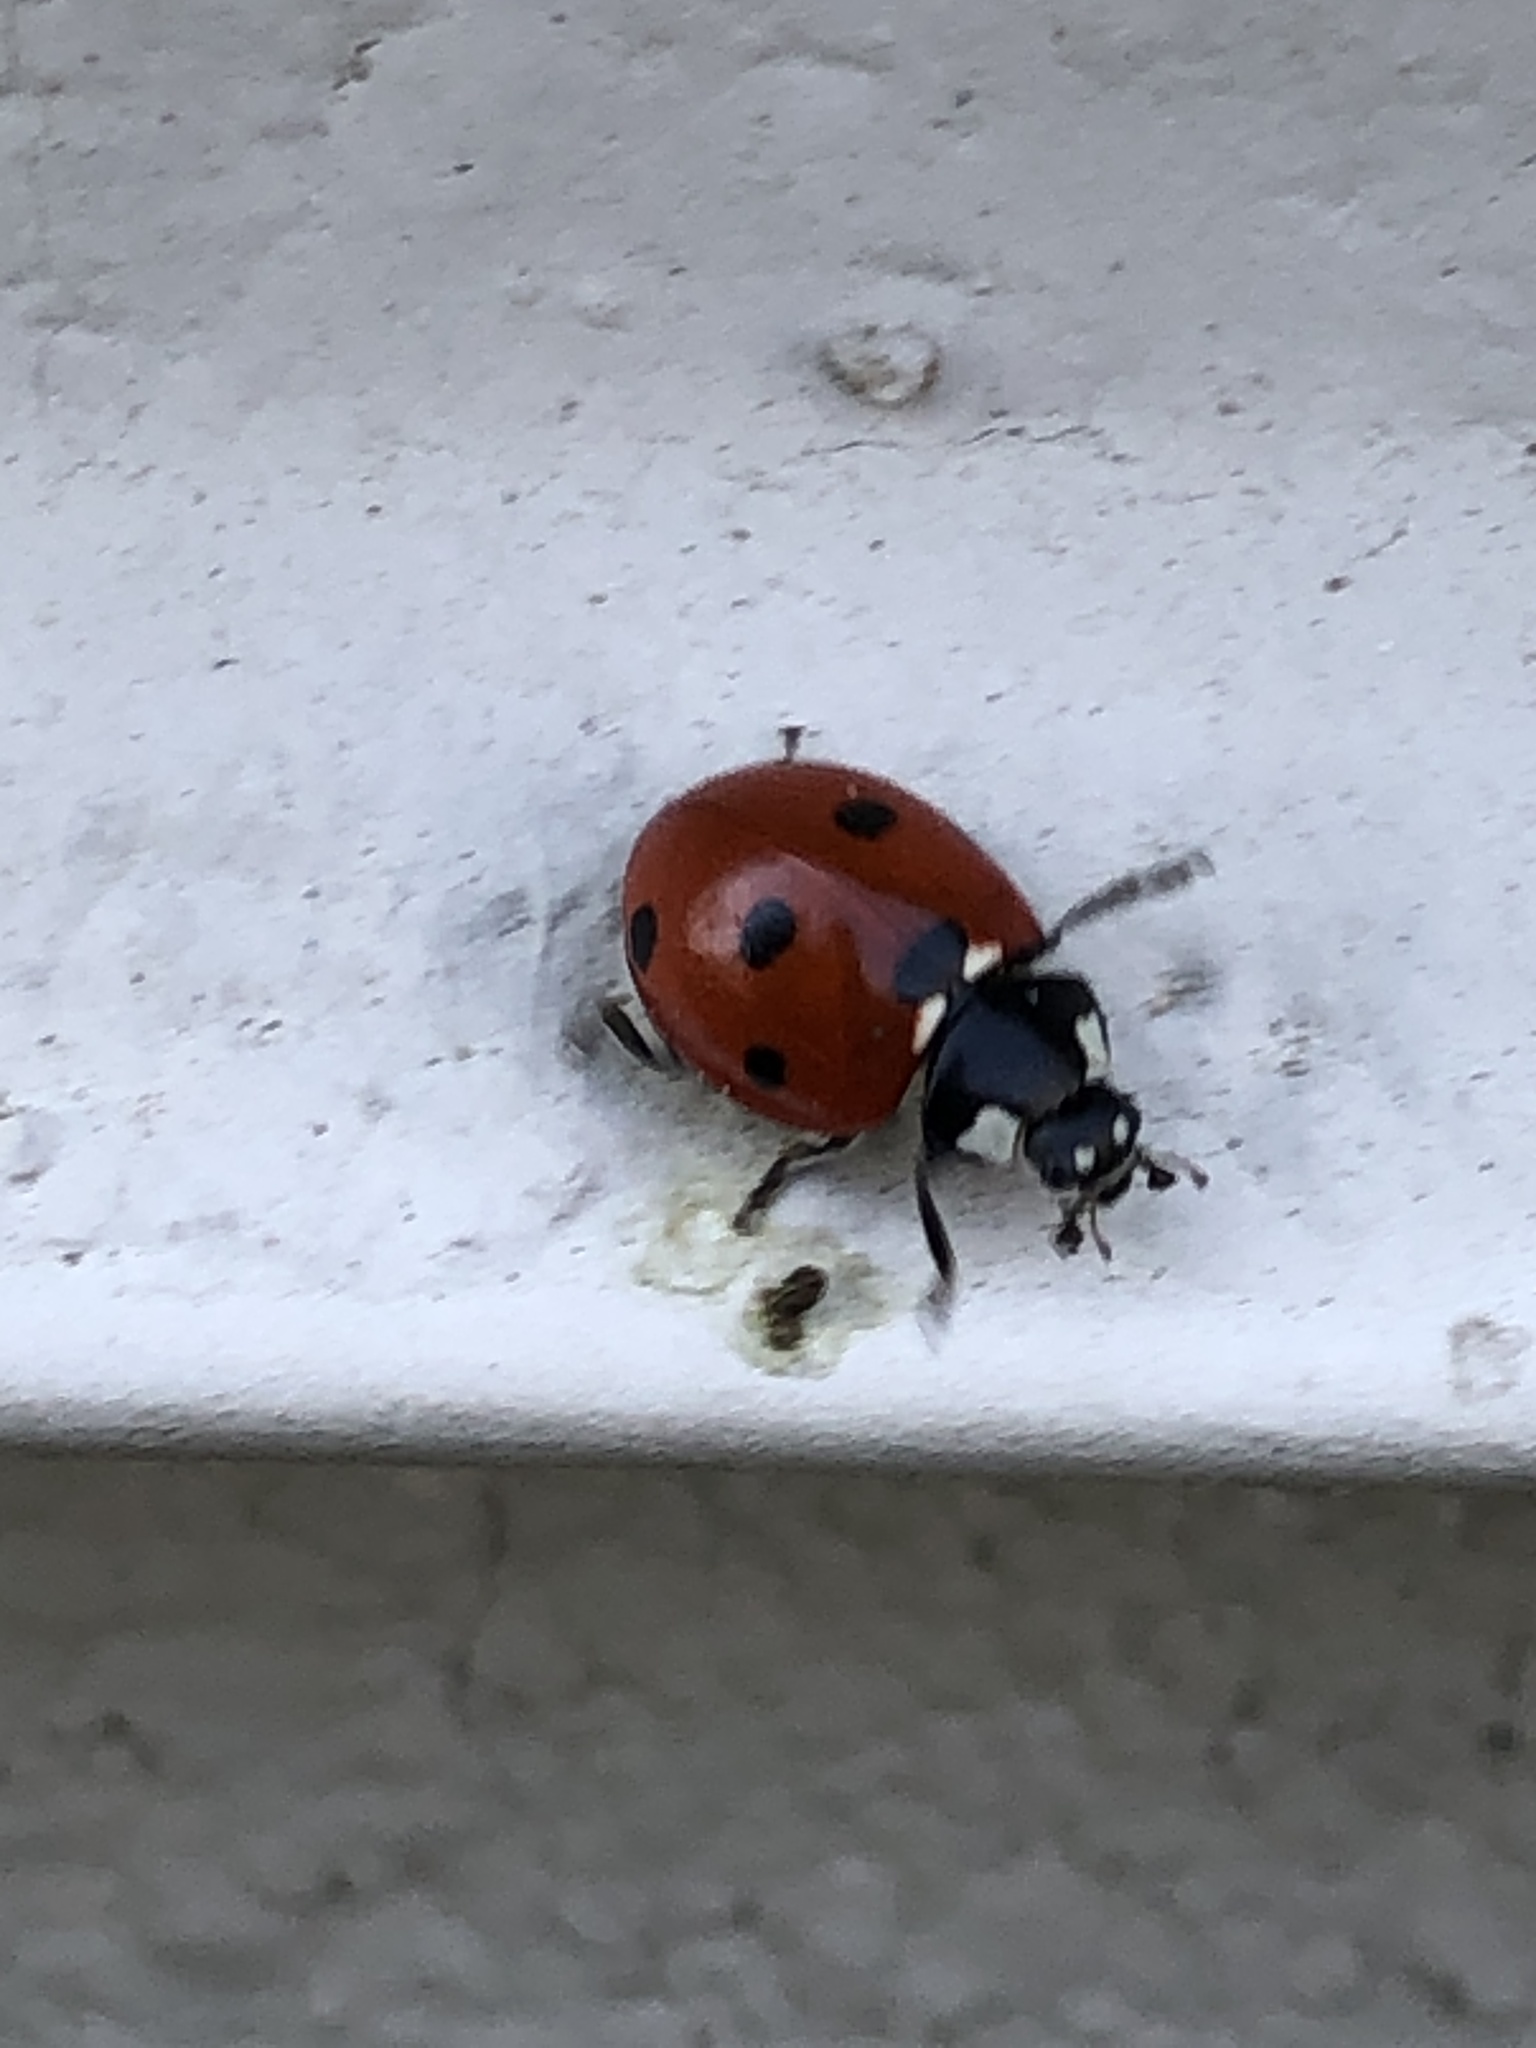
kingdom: Animalia
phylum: Arthropoda
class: Insecta
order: Coleoptera
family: Coccinellidae
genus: Coccinella
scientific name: Coccinella septempunctata
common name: Sevenspotted lady beetle
